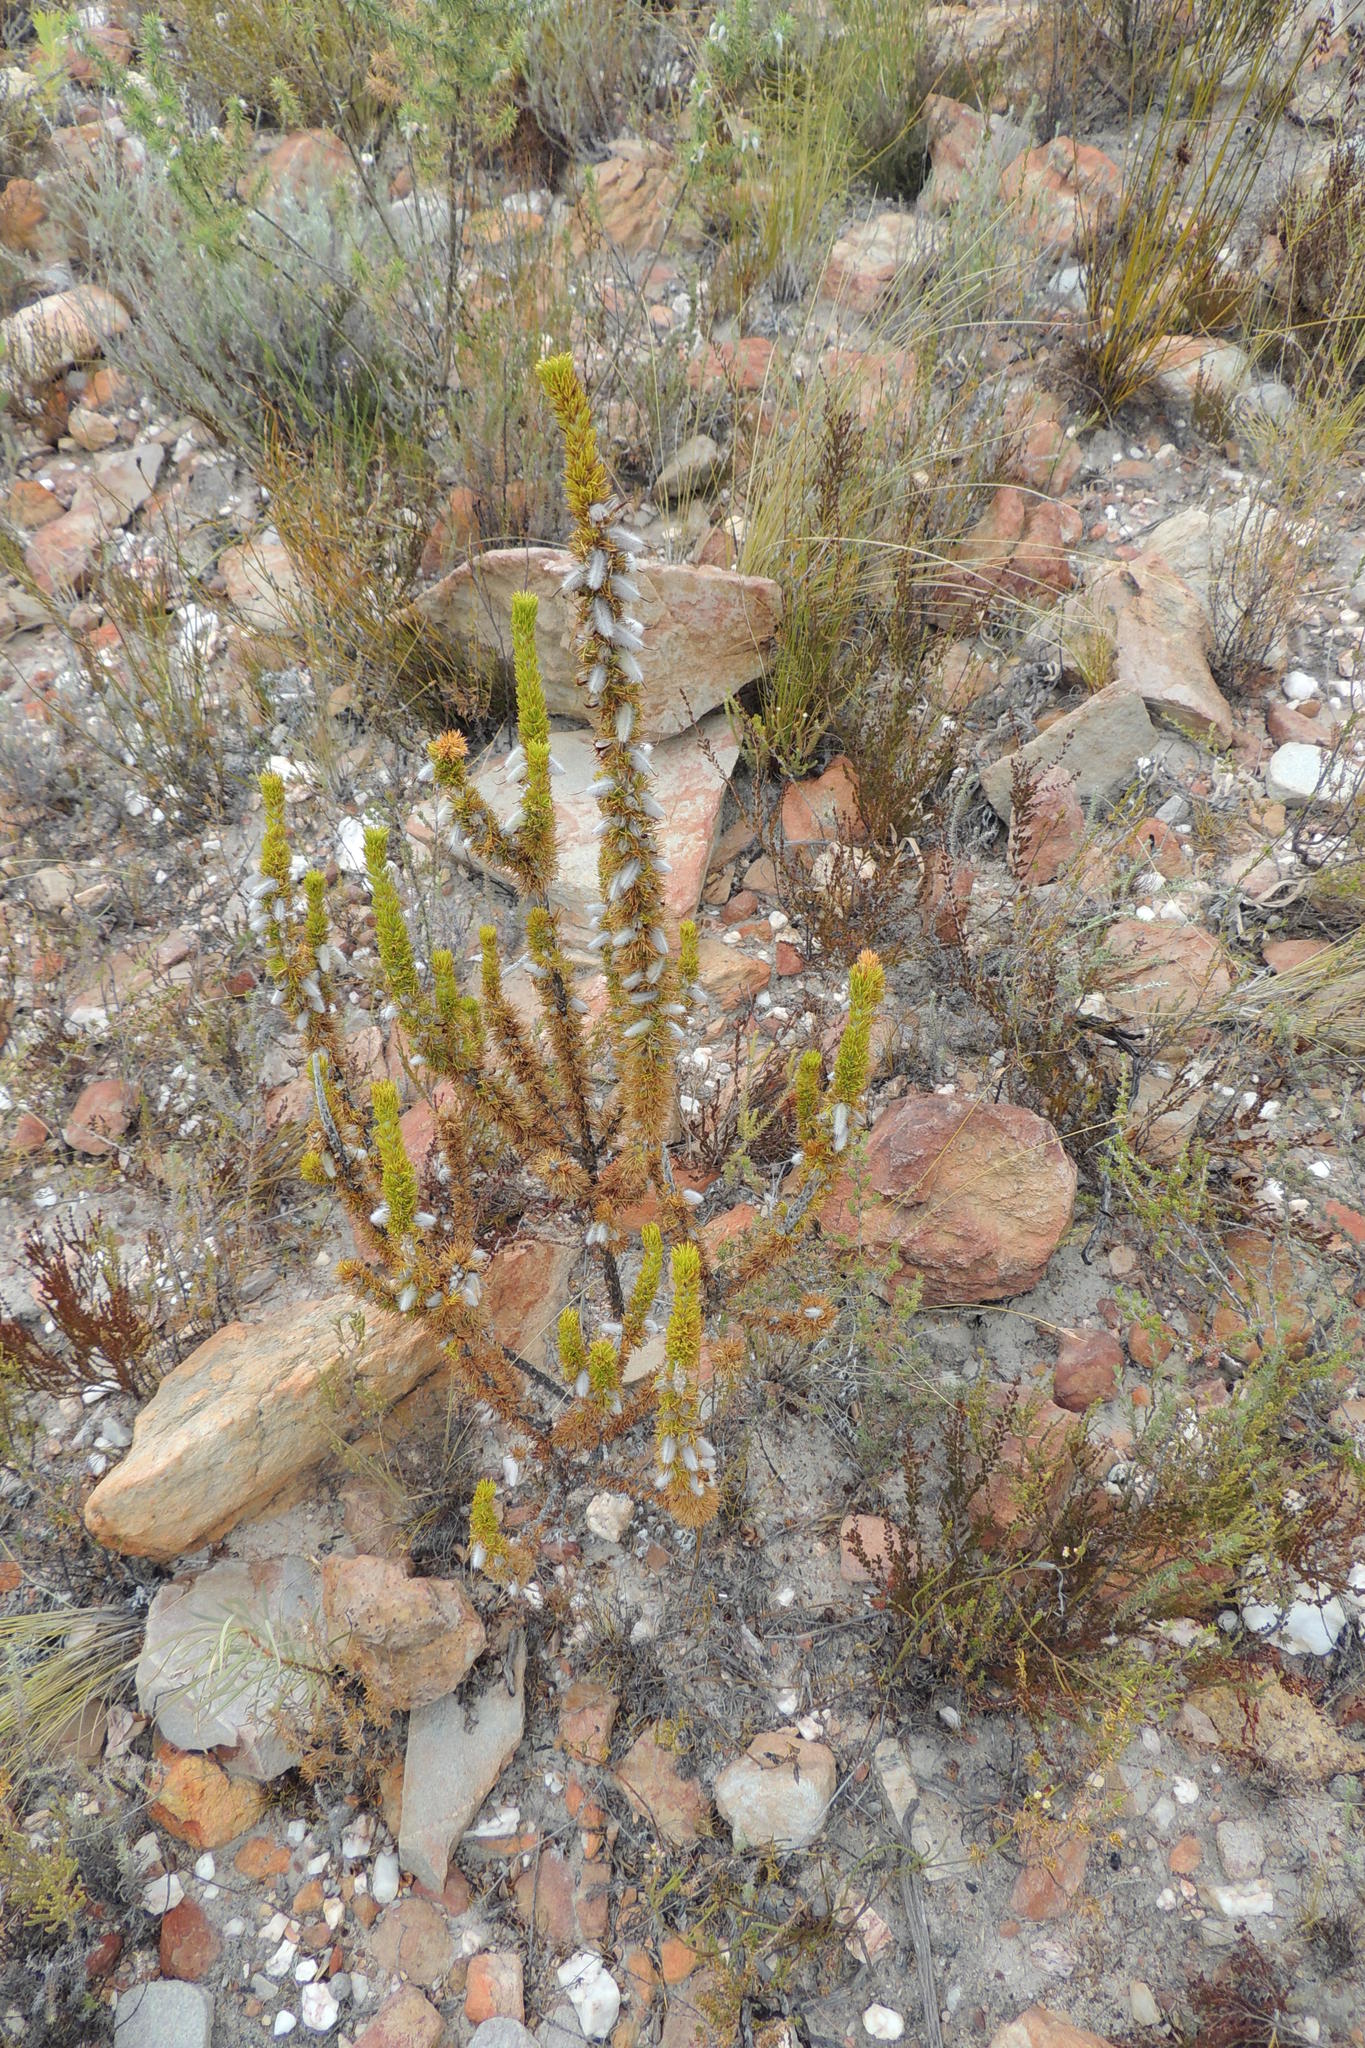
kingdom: Plantae
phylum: Tracheophyta
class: Magnoliopsida
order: Fabales
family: Fabaceae
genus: Aspalathus
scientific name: Aspalathus acanthes
